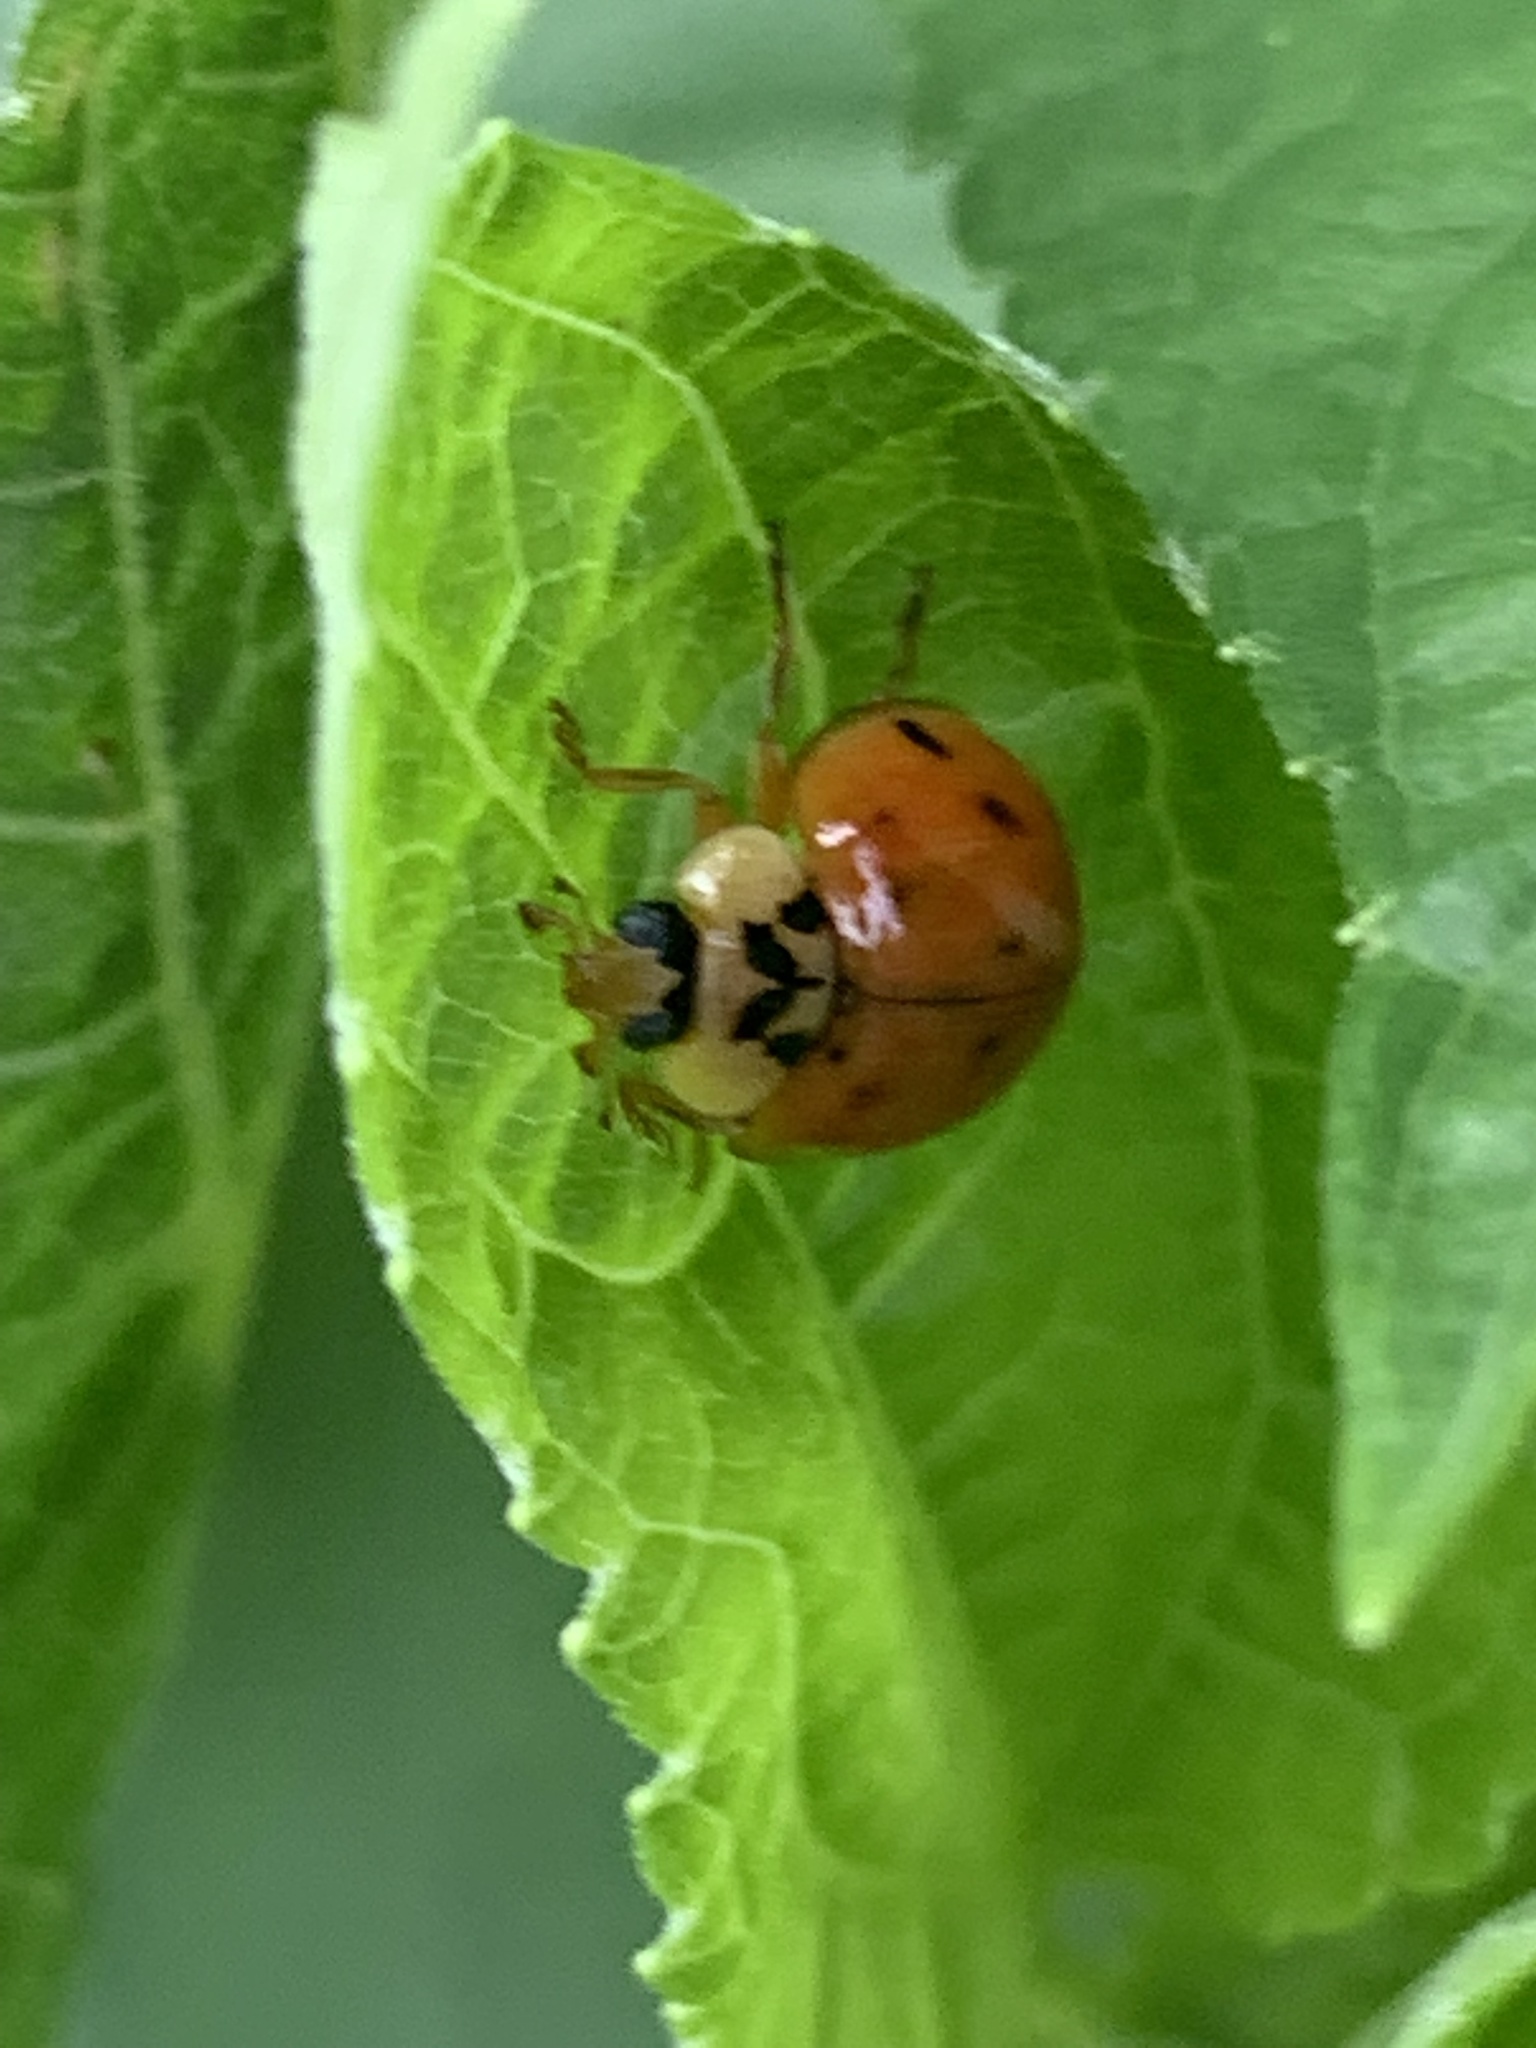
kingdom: Animalia
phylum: Arthropoda
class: Insecta
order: Coleoptera
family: Coccinellidae
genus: Harmonia
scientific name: Harmonia axyridis
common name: Harlequin ladybird
